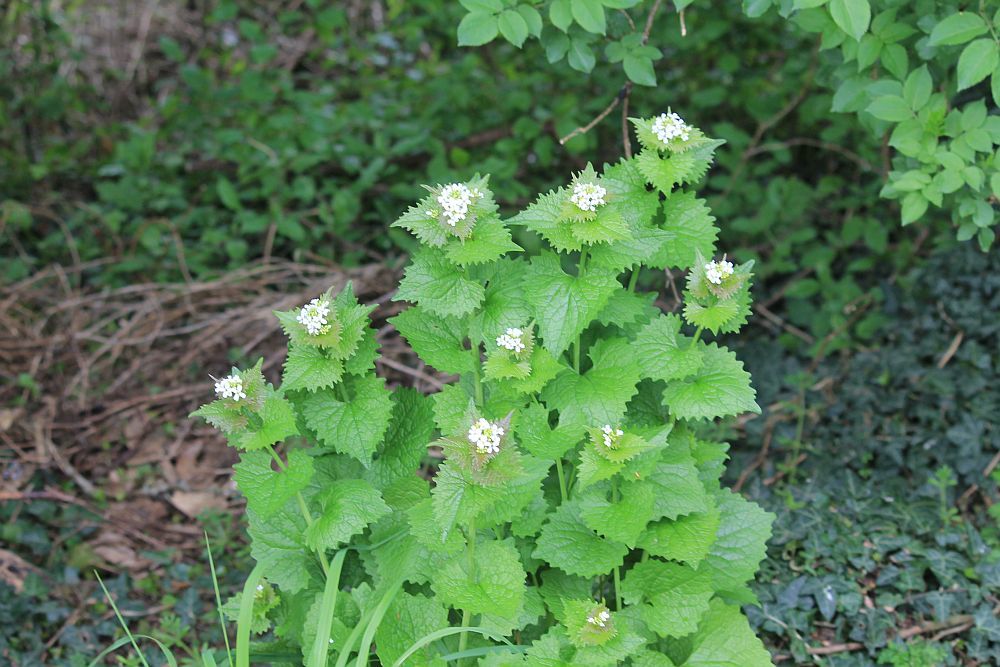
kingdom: Plantae
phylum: Tracheophyta
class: Magnoliopsida
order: Brassicales
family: Brassicaceae
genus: Alliaria
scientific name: Alliaria petiolata
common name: Garlic mustard
